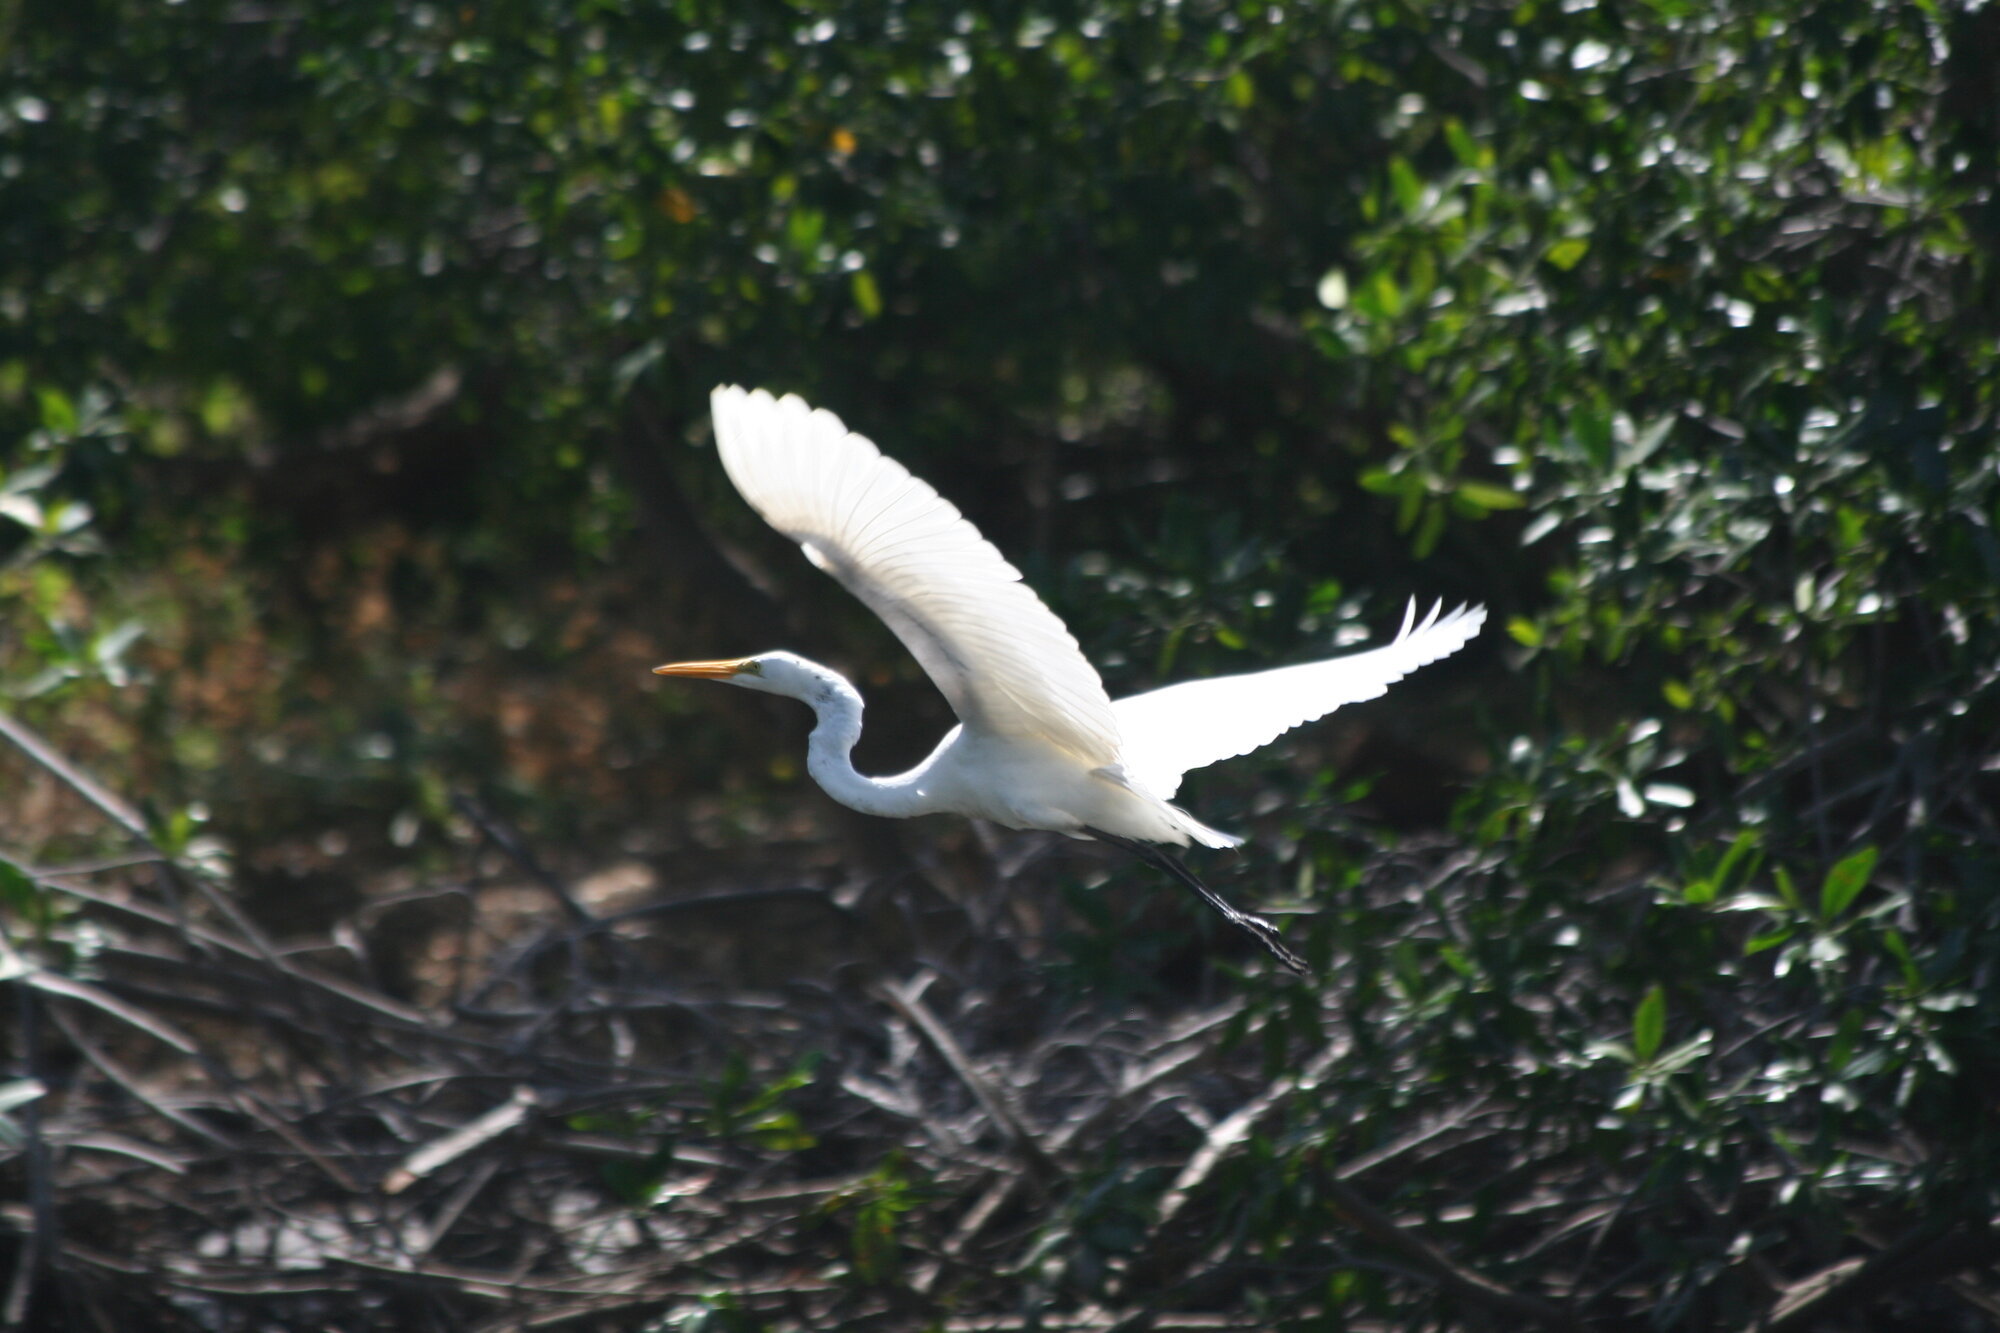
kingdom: Animalia
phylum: Chordata
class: Aves
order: Pelecaniformes
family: Ardeidae
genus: Ardea
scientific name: Ardea alba
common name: Great egret
